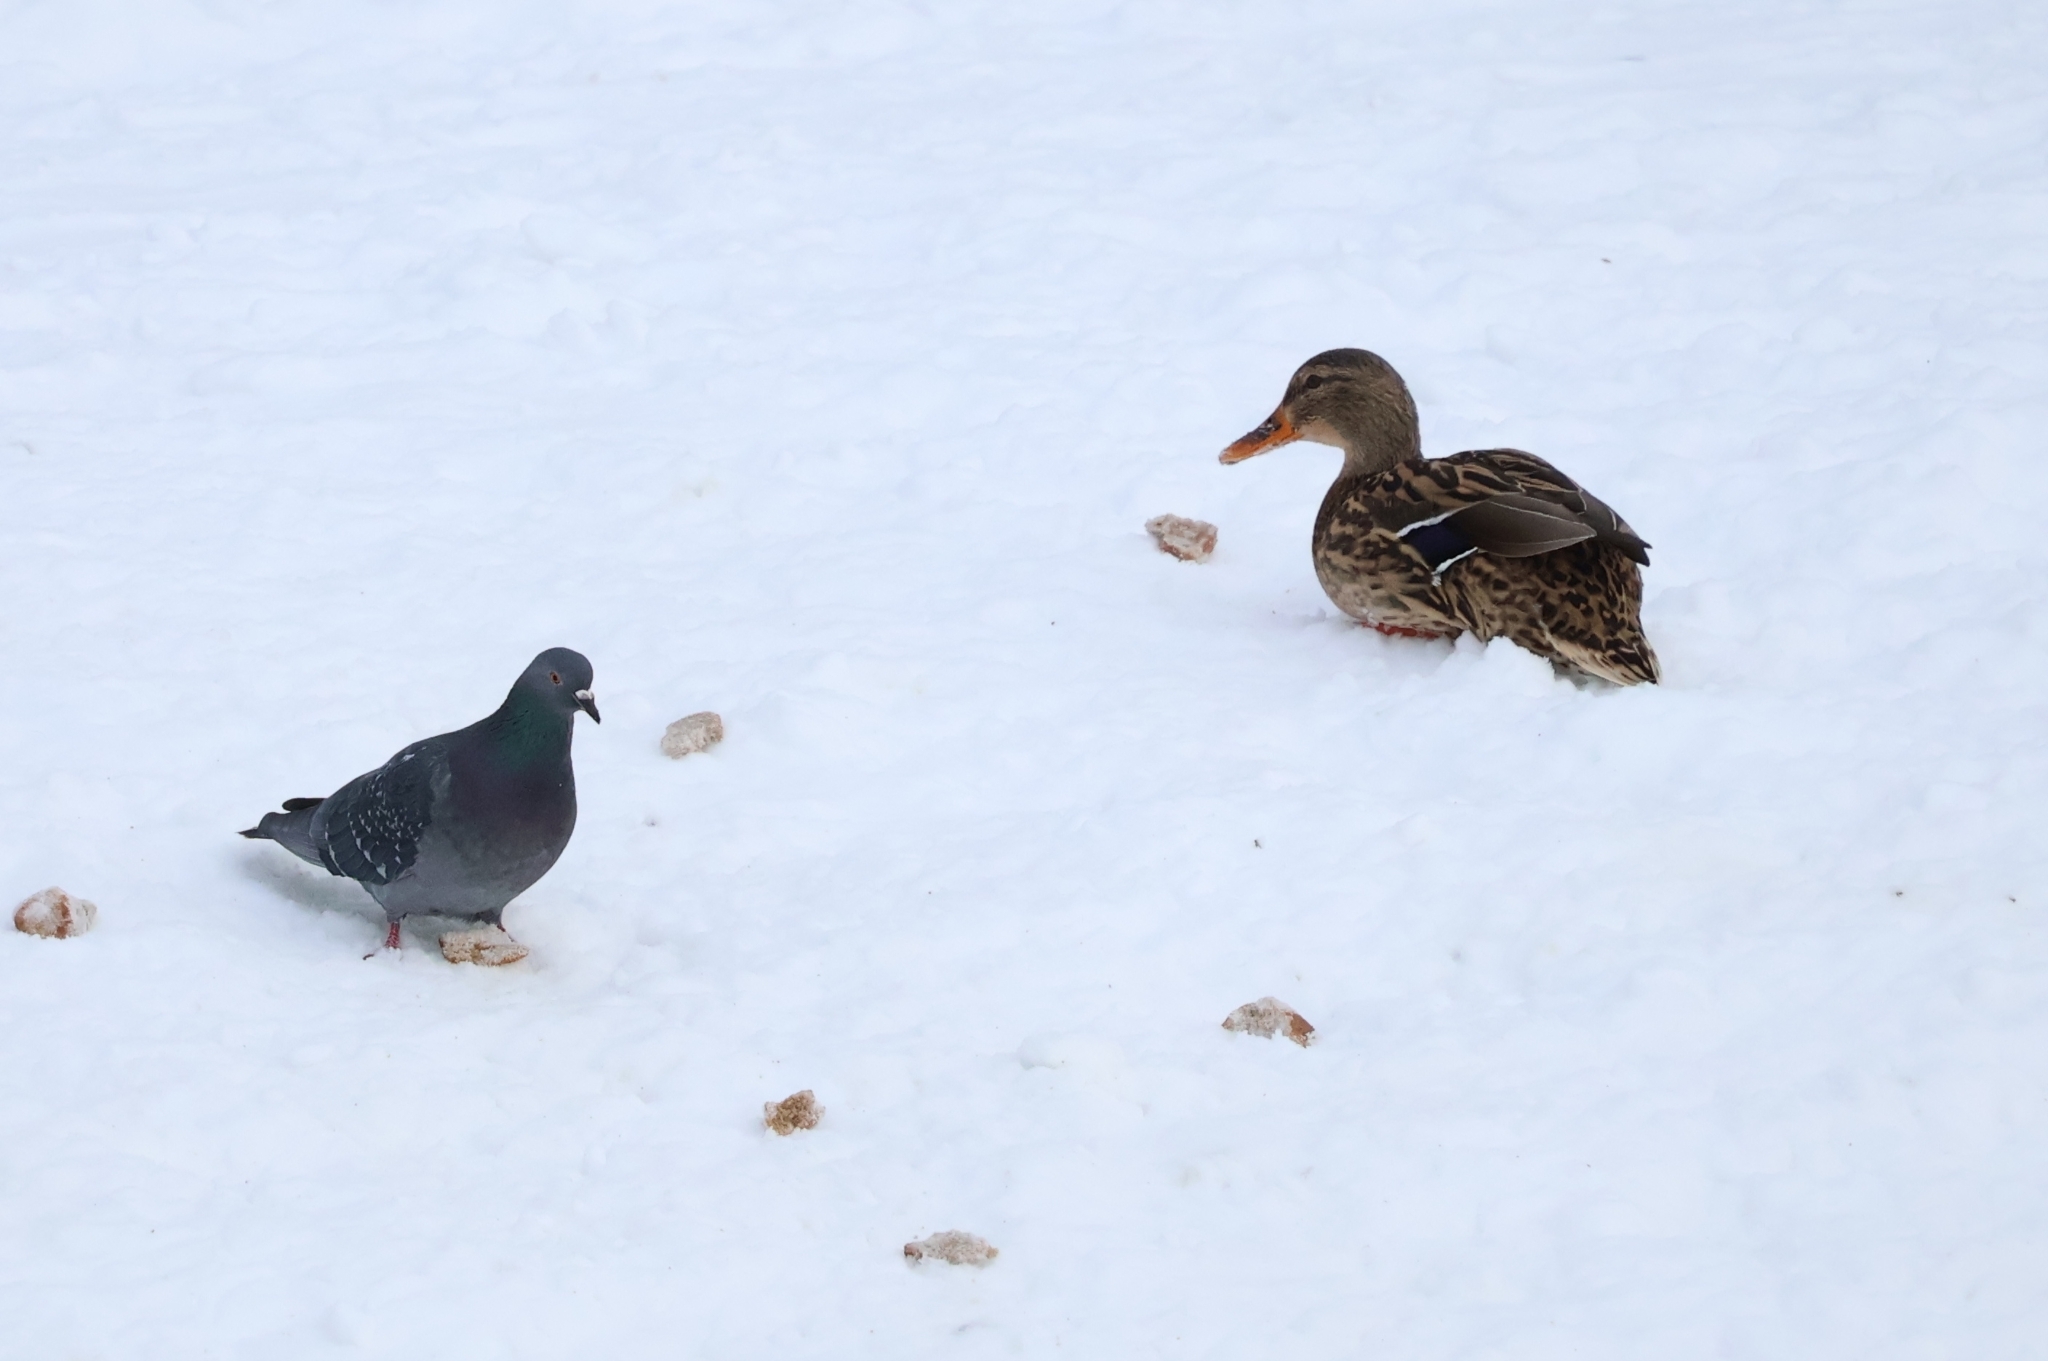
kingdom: Animalia
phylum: Chordata
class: Aves
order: Anseriformes
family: Anatidae
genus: Anas
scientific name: Anas platyrhynchos
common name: Mallard
